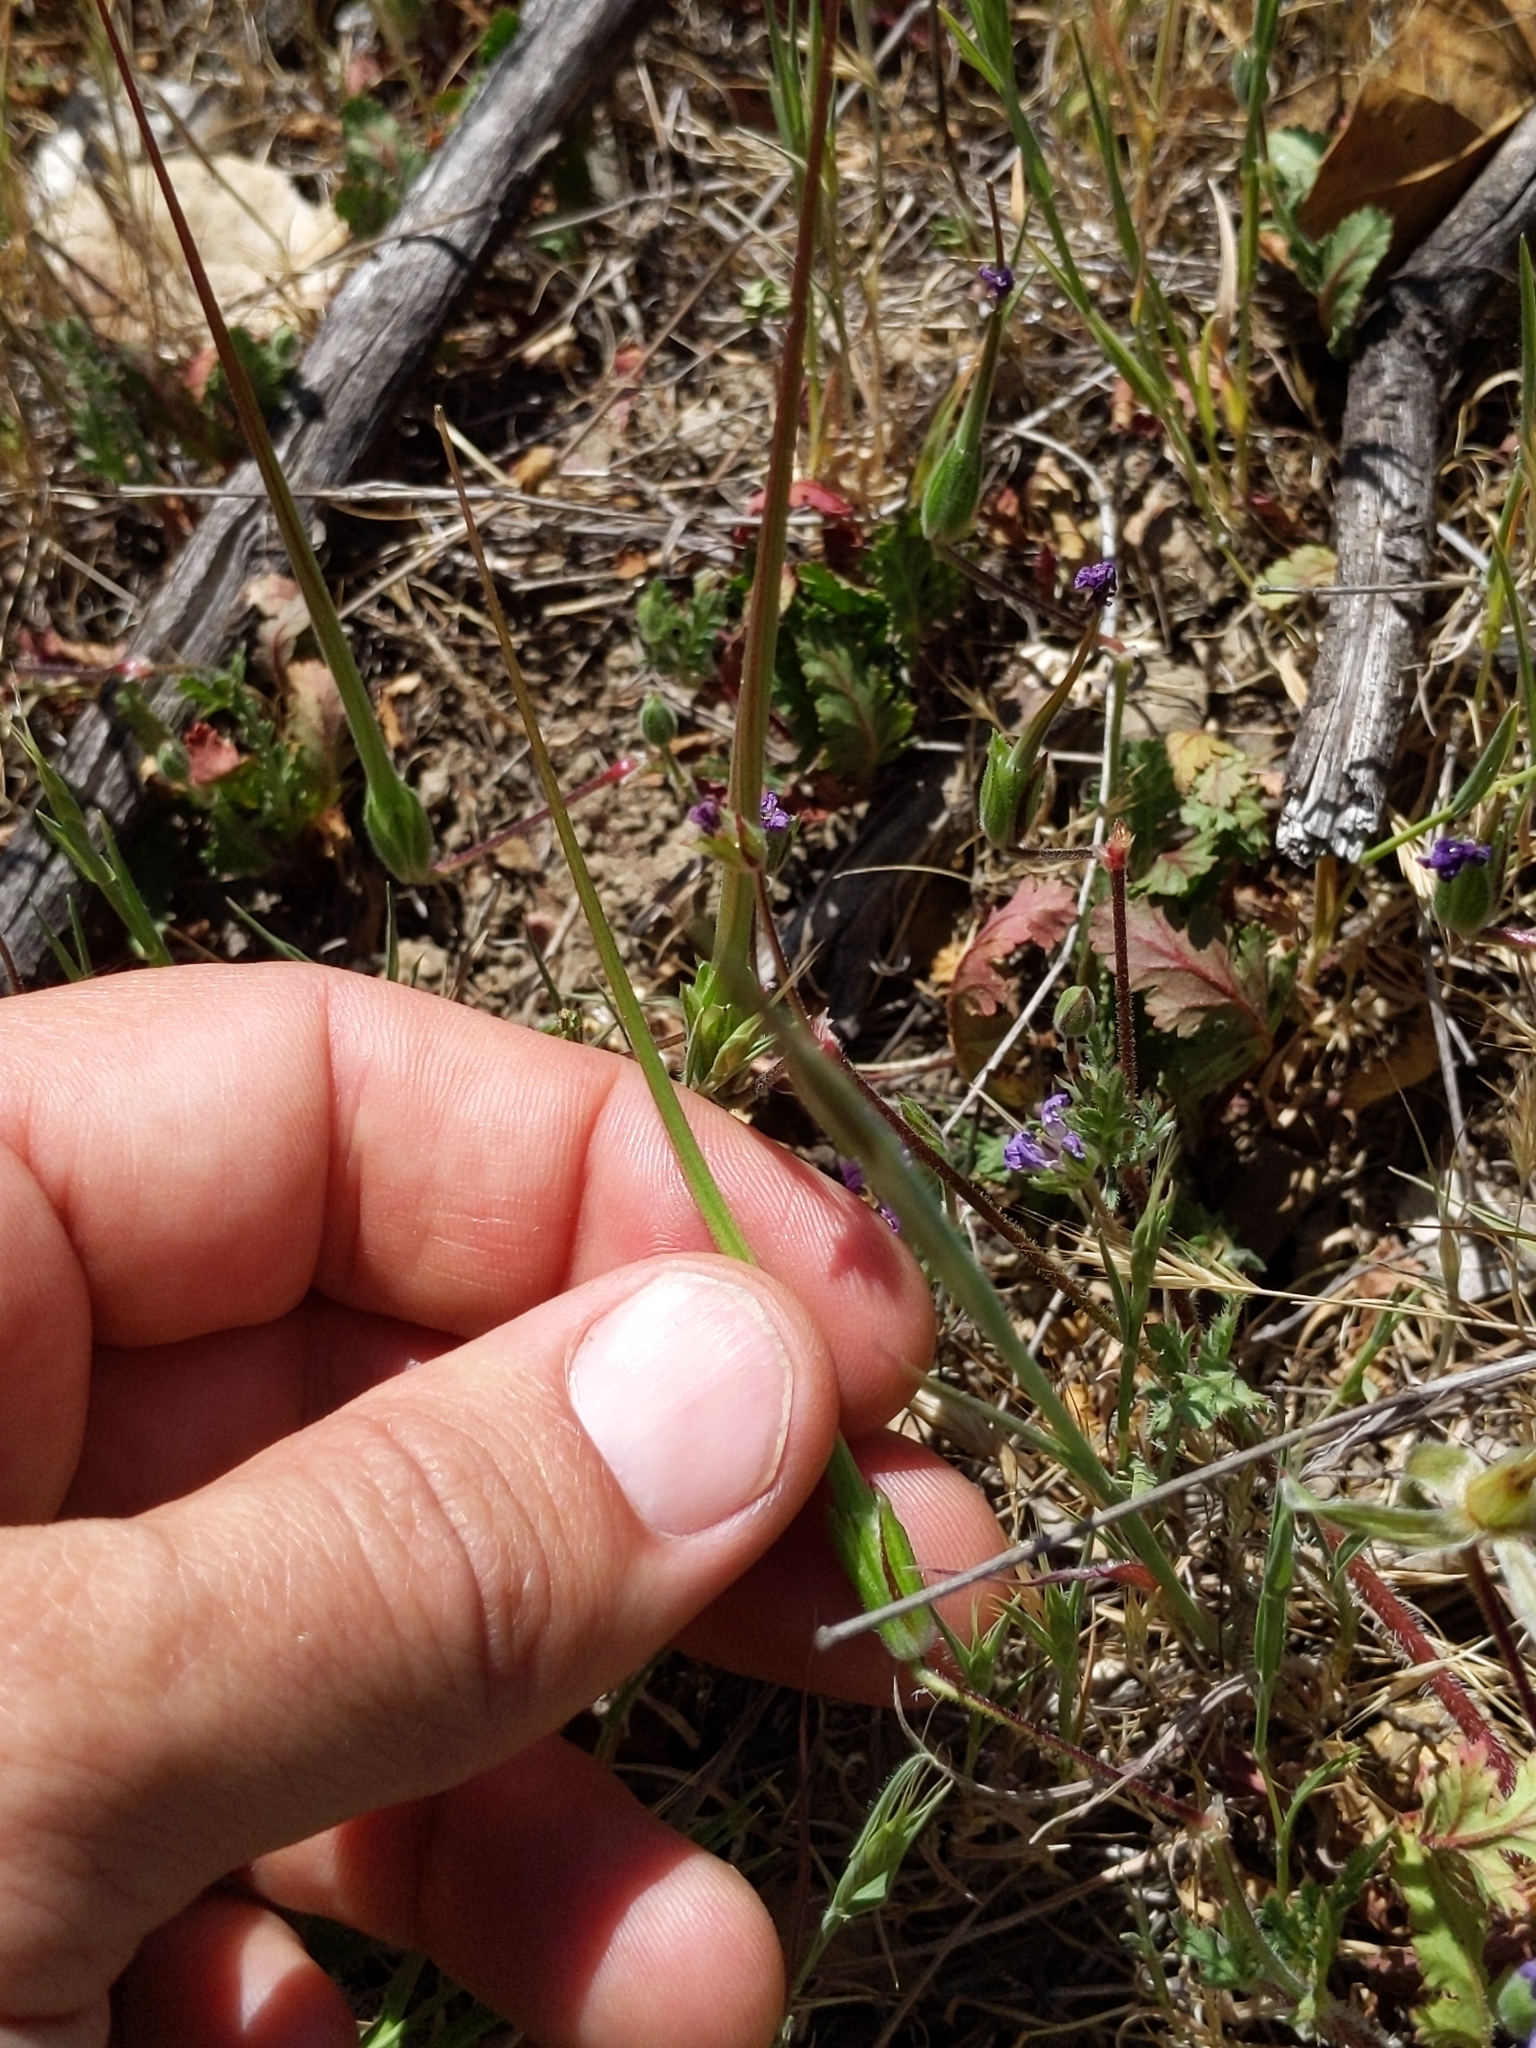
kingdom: Plantae
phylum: Tracheophyta
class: Magnoliopsida
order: Geraniales
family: Geraniaceae
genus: Erodium
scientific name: Erodium botrys
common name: Mediterranean stork's-bill
